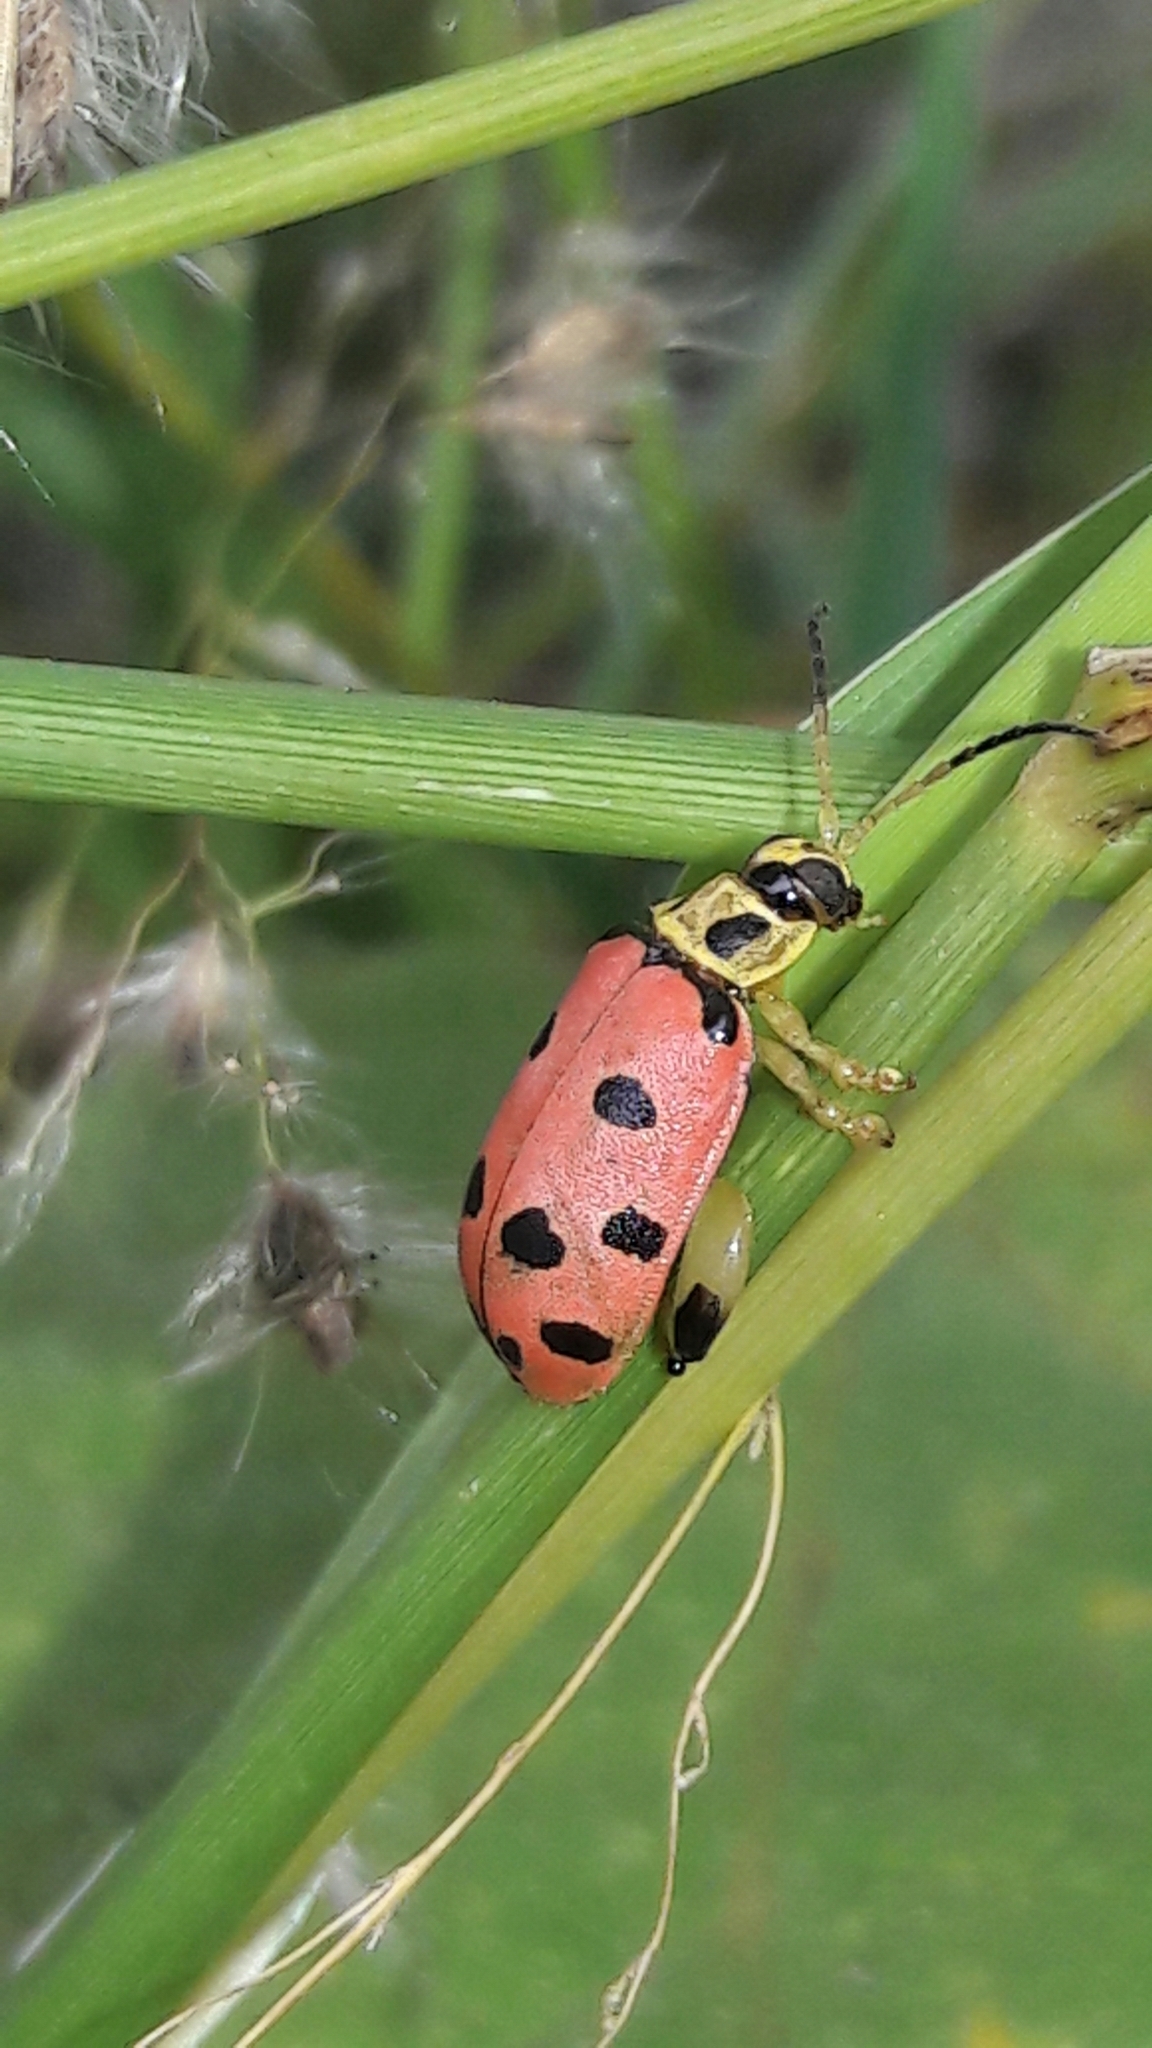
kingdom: Animalia
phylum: Arthropoda
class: Insecta
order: Coleoptera
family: Chrysomelidae
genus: Alagoasa
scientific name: Alagoasa
